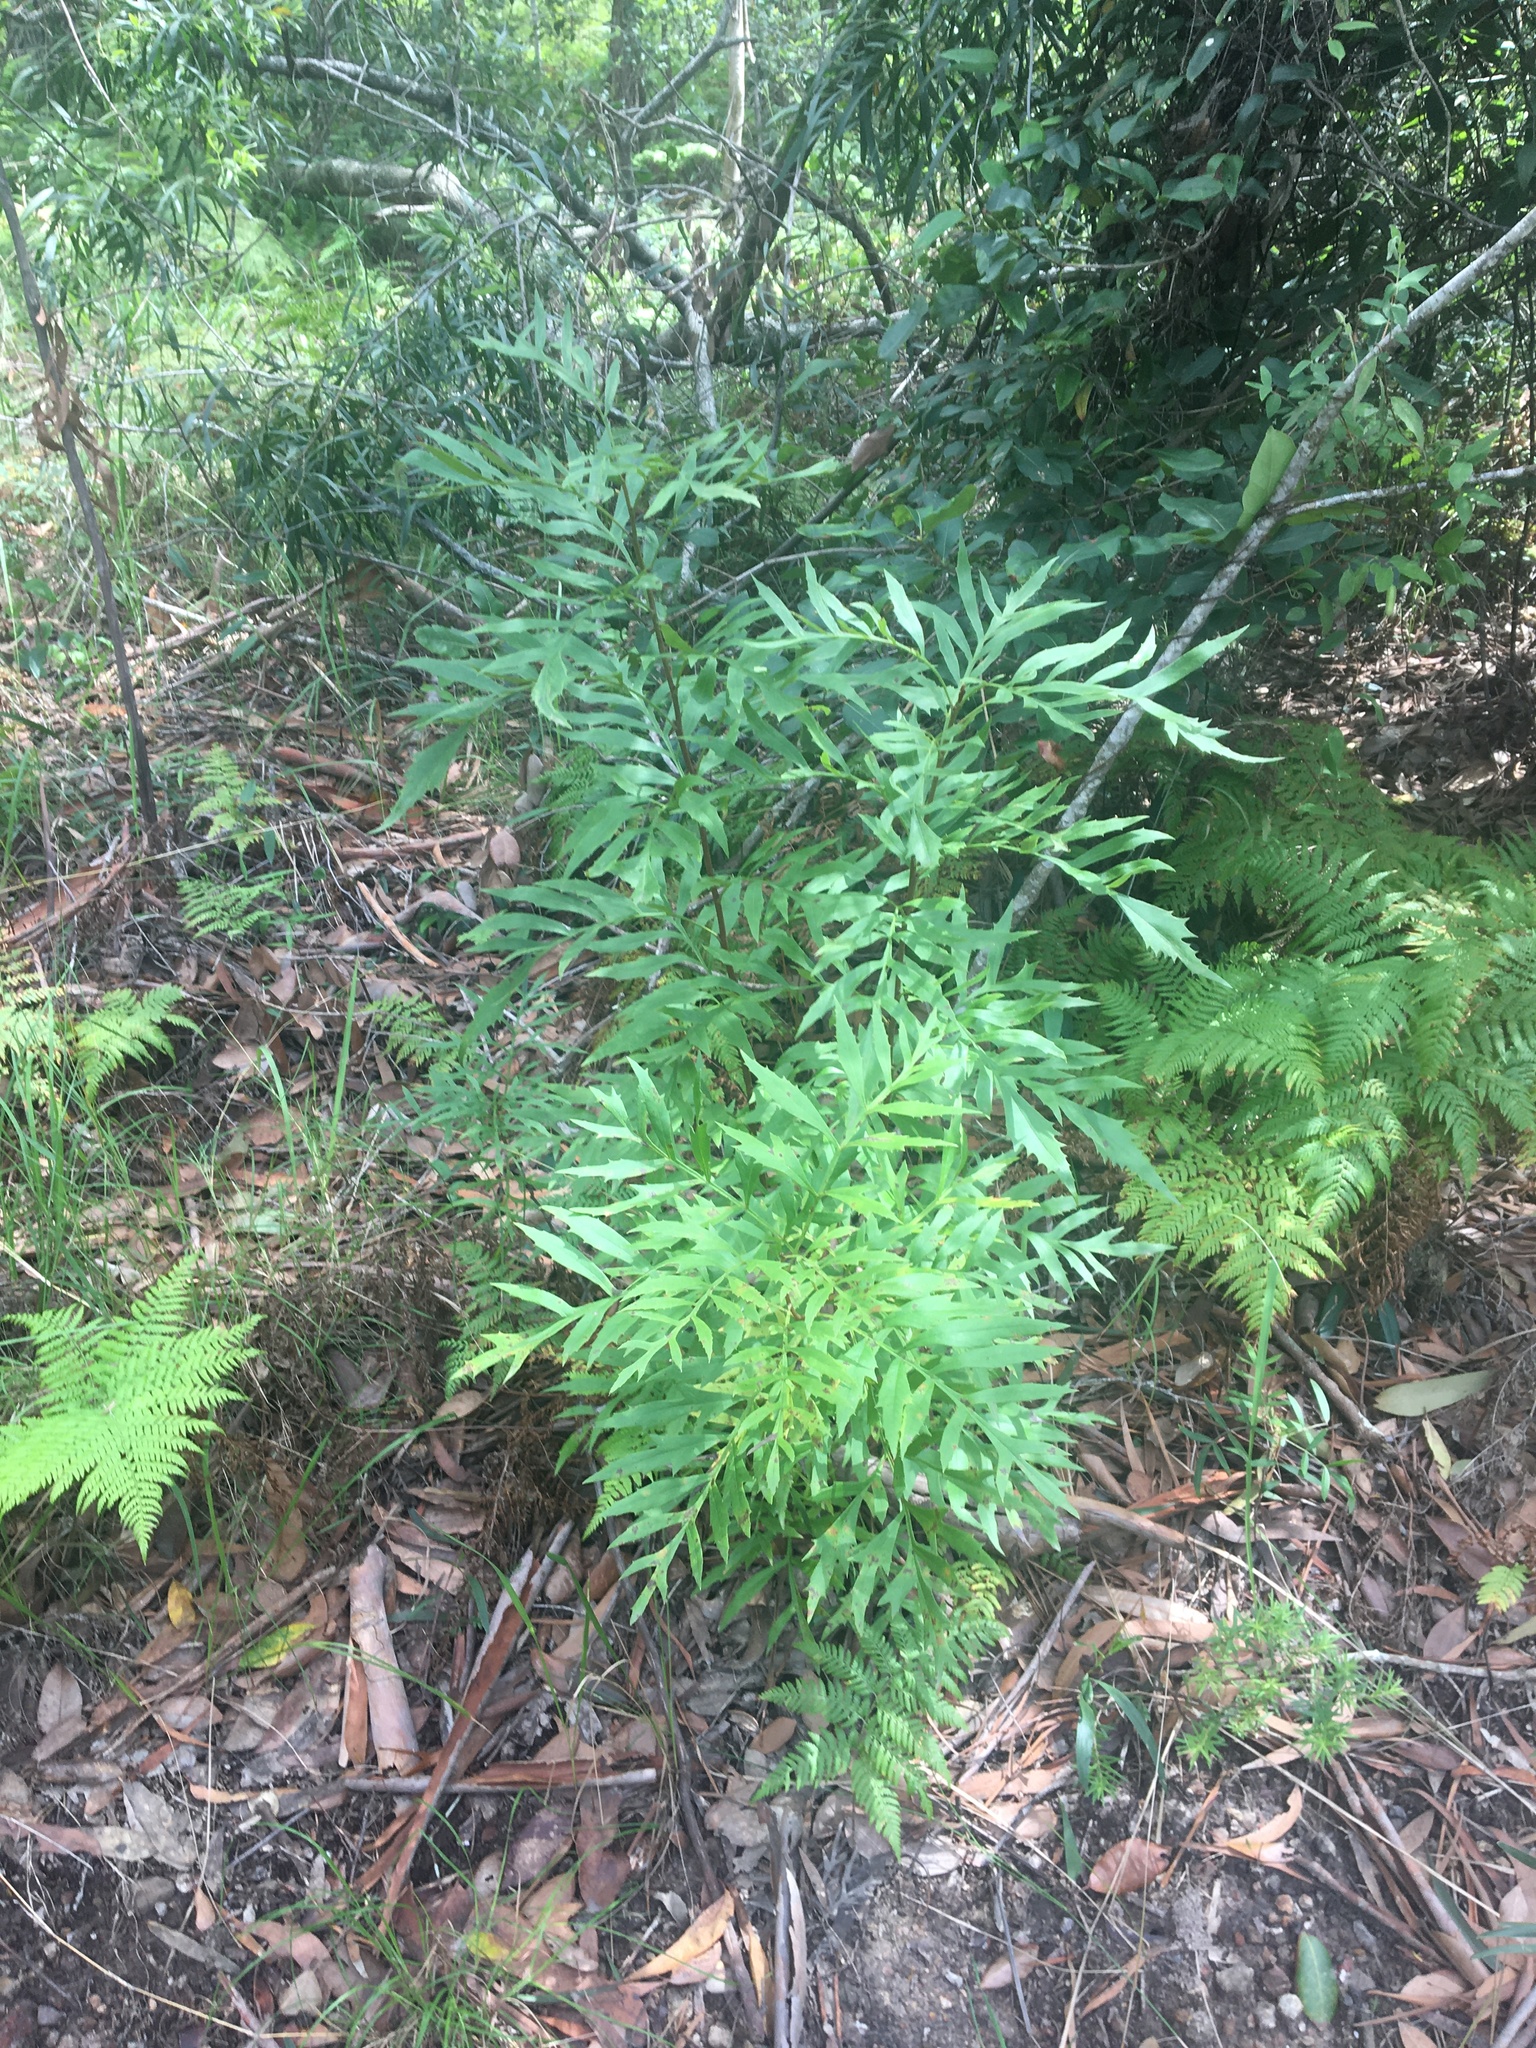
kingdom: Plantae
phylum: Tracheophyta
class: Magnoliopsida
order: Proteales
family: Proteaceae
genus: Lomatia
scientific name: Lomatia silaifolia
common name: Crinklebush
